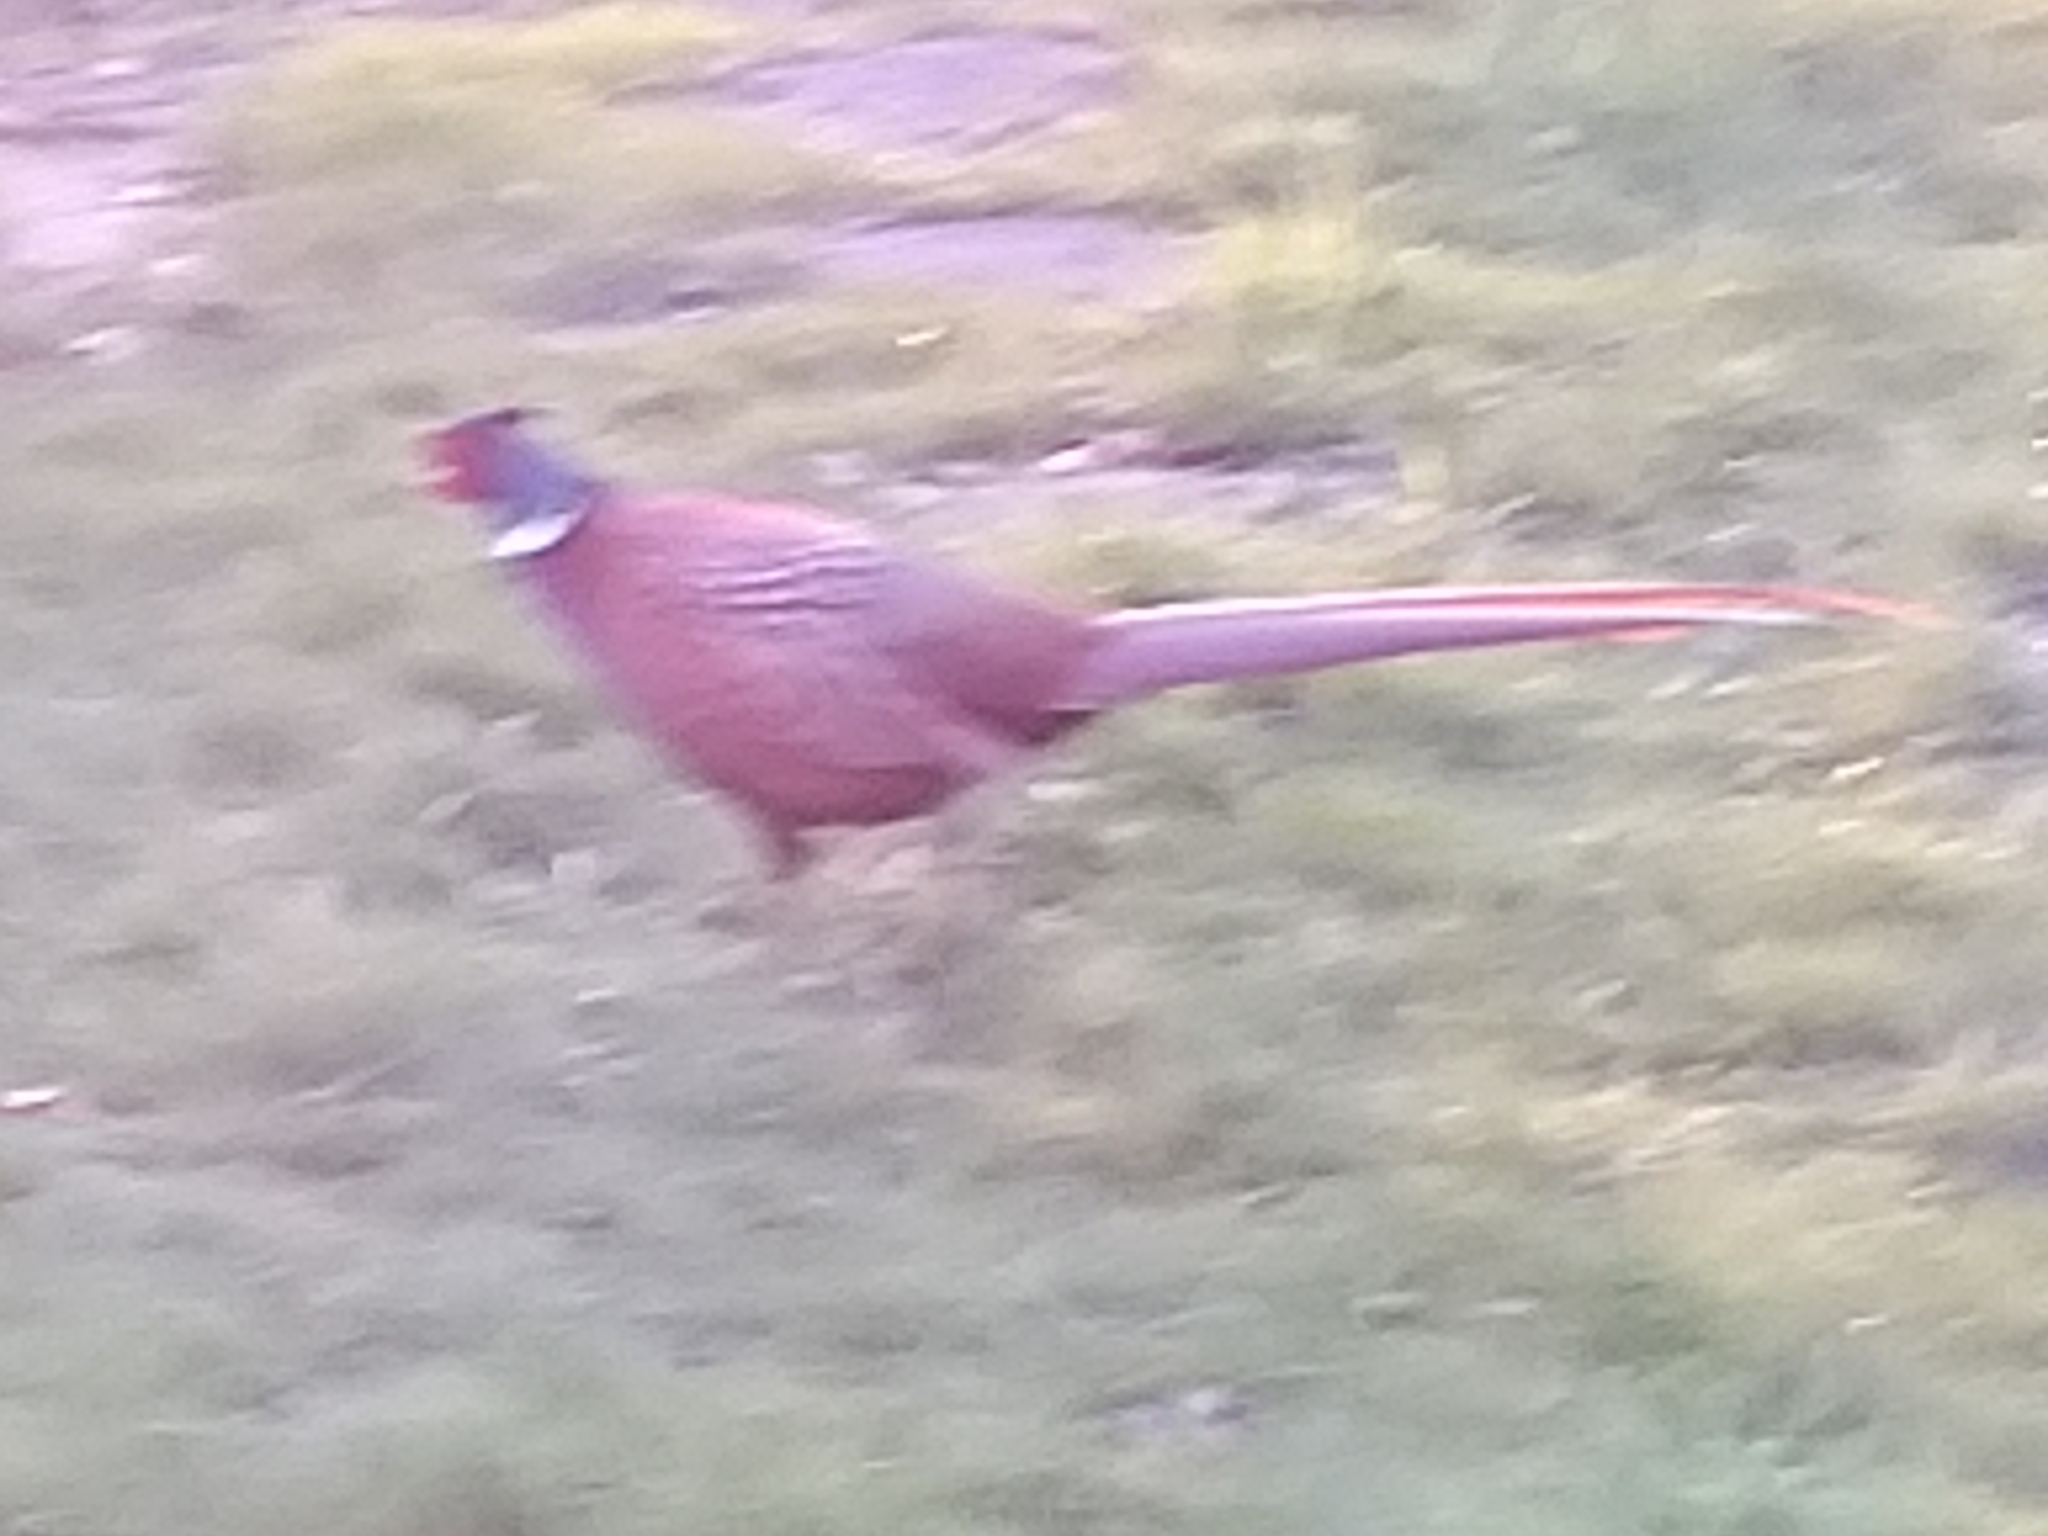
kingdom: Animalia
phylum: Chordata
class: Aves
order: Galliformes
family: Phasianidae
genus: Phasianus
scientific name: Phasianus colchicus
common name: Common pheasant
